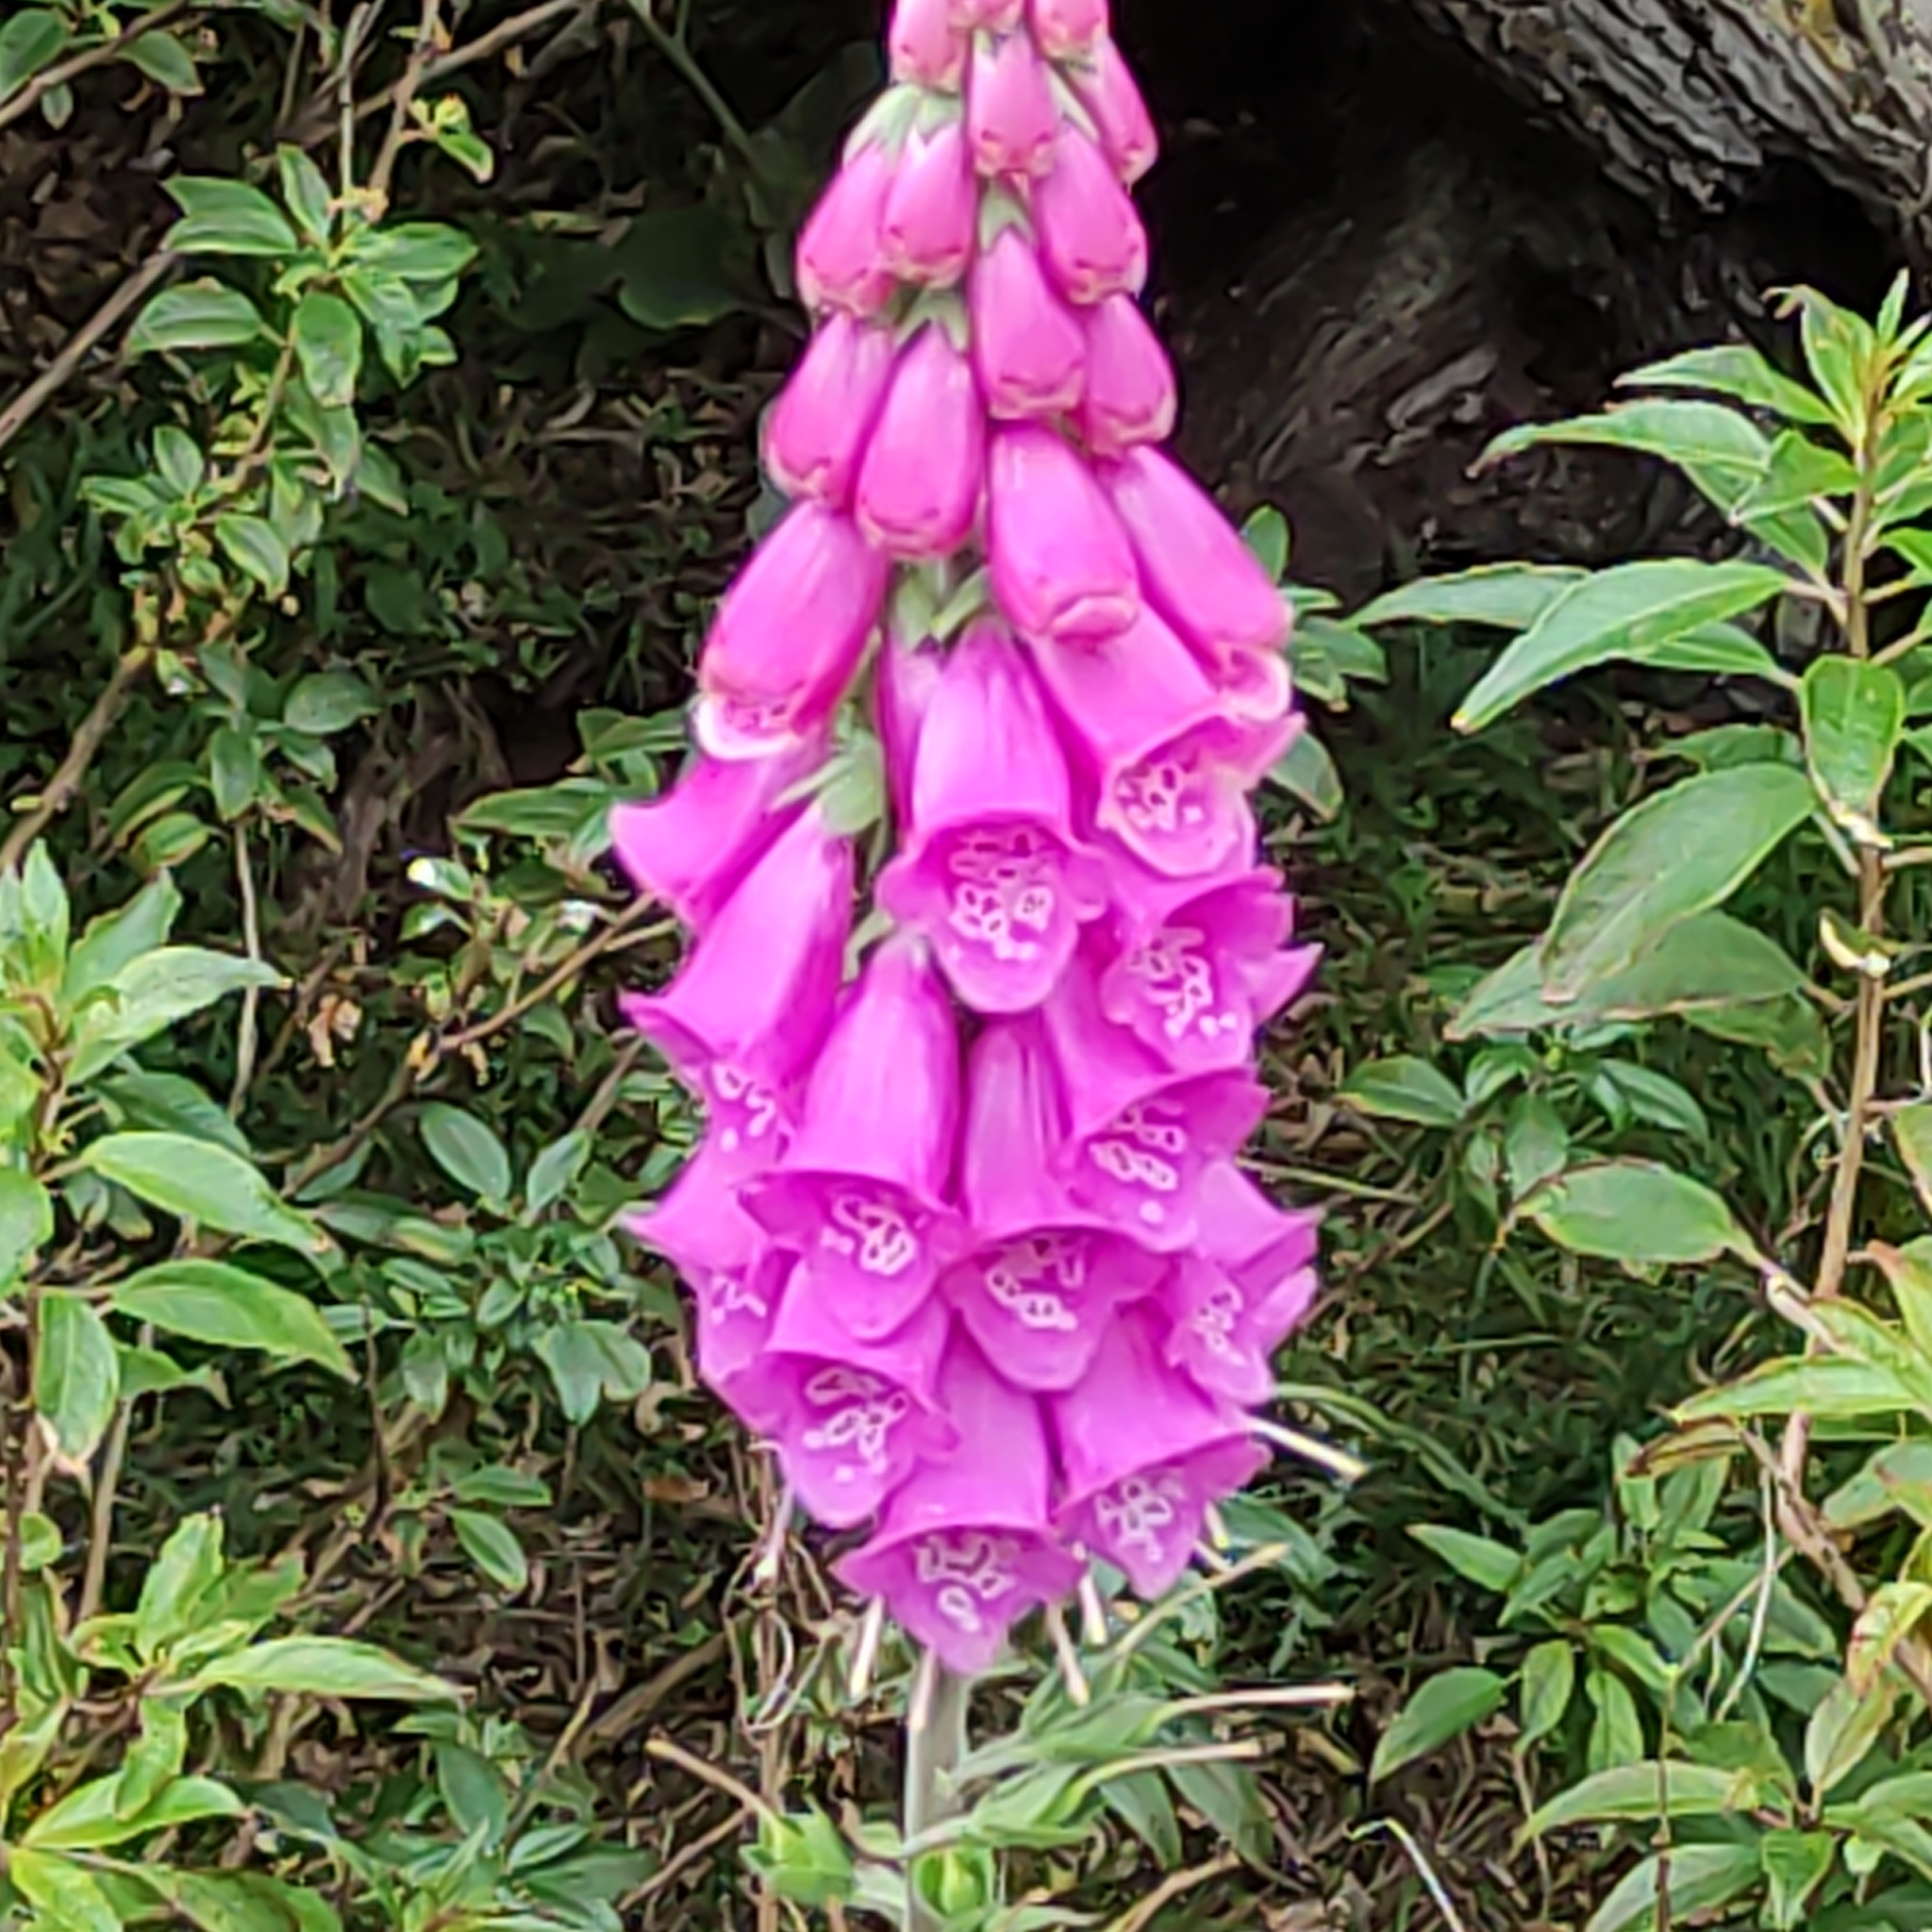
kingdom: Plantae
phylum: Tracheophyta
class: Magnoliopsida
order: Lamiales
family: Plantaginaceae
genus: Digitalis
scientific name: Digitalis purpurea
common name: Foxglove
